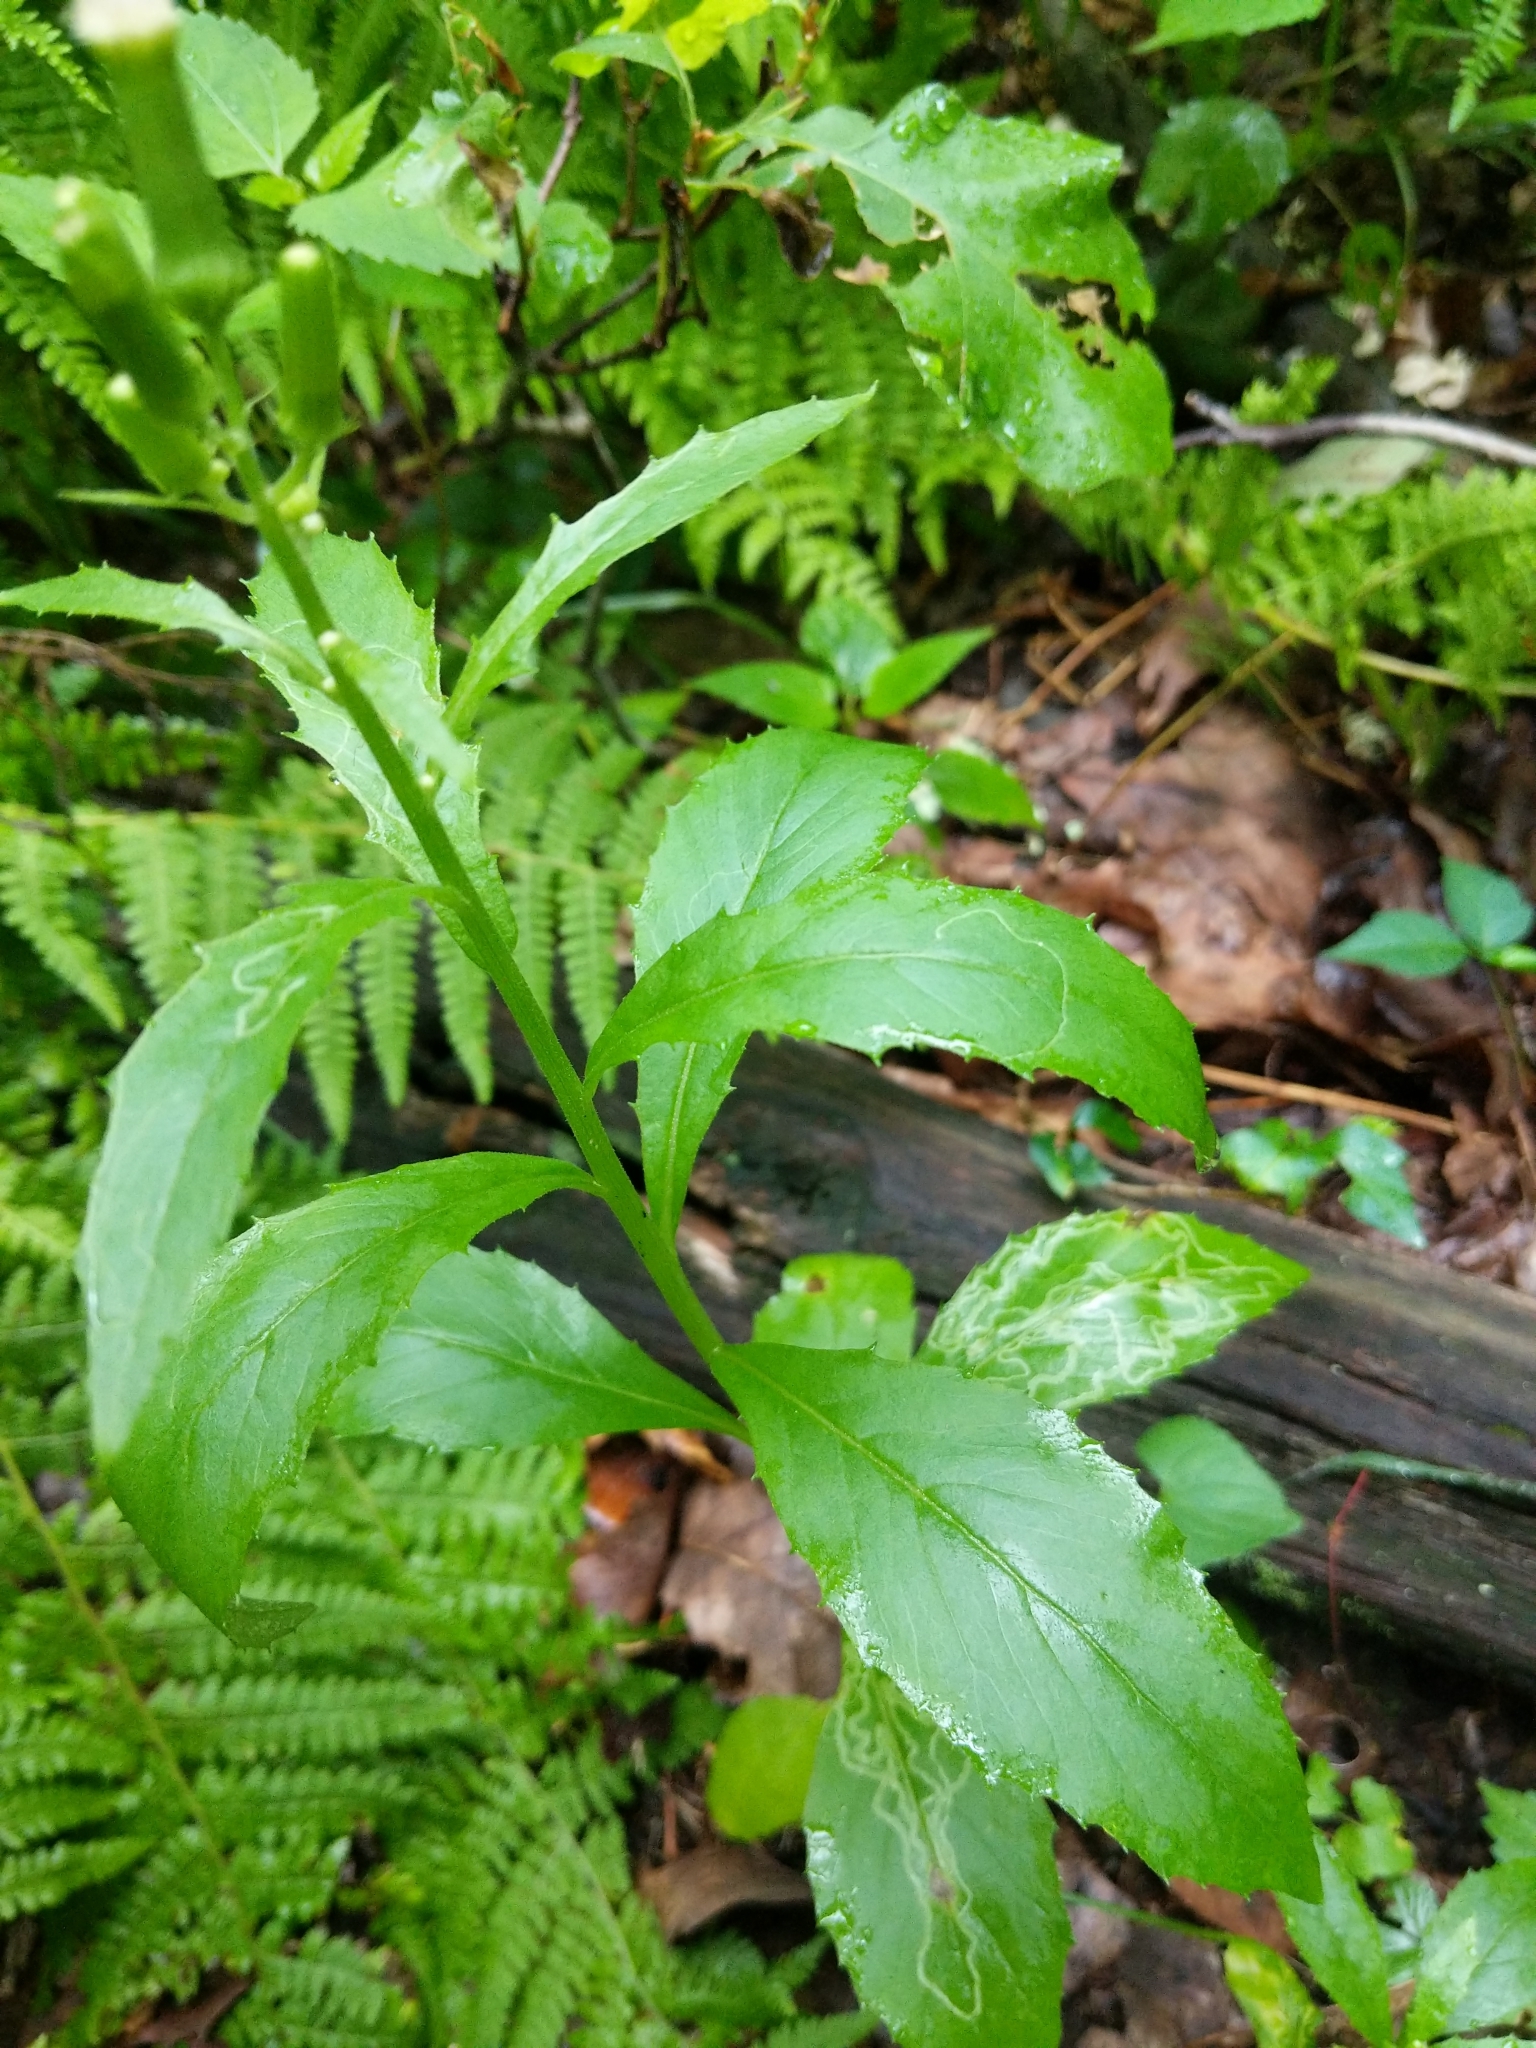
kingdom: Animalia
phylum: Arthropoda
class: Insecta
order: Lepidoptera
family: Gracillariidae
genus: Phyllocnistis
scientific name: Phyllocnistis insignis
